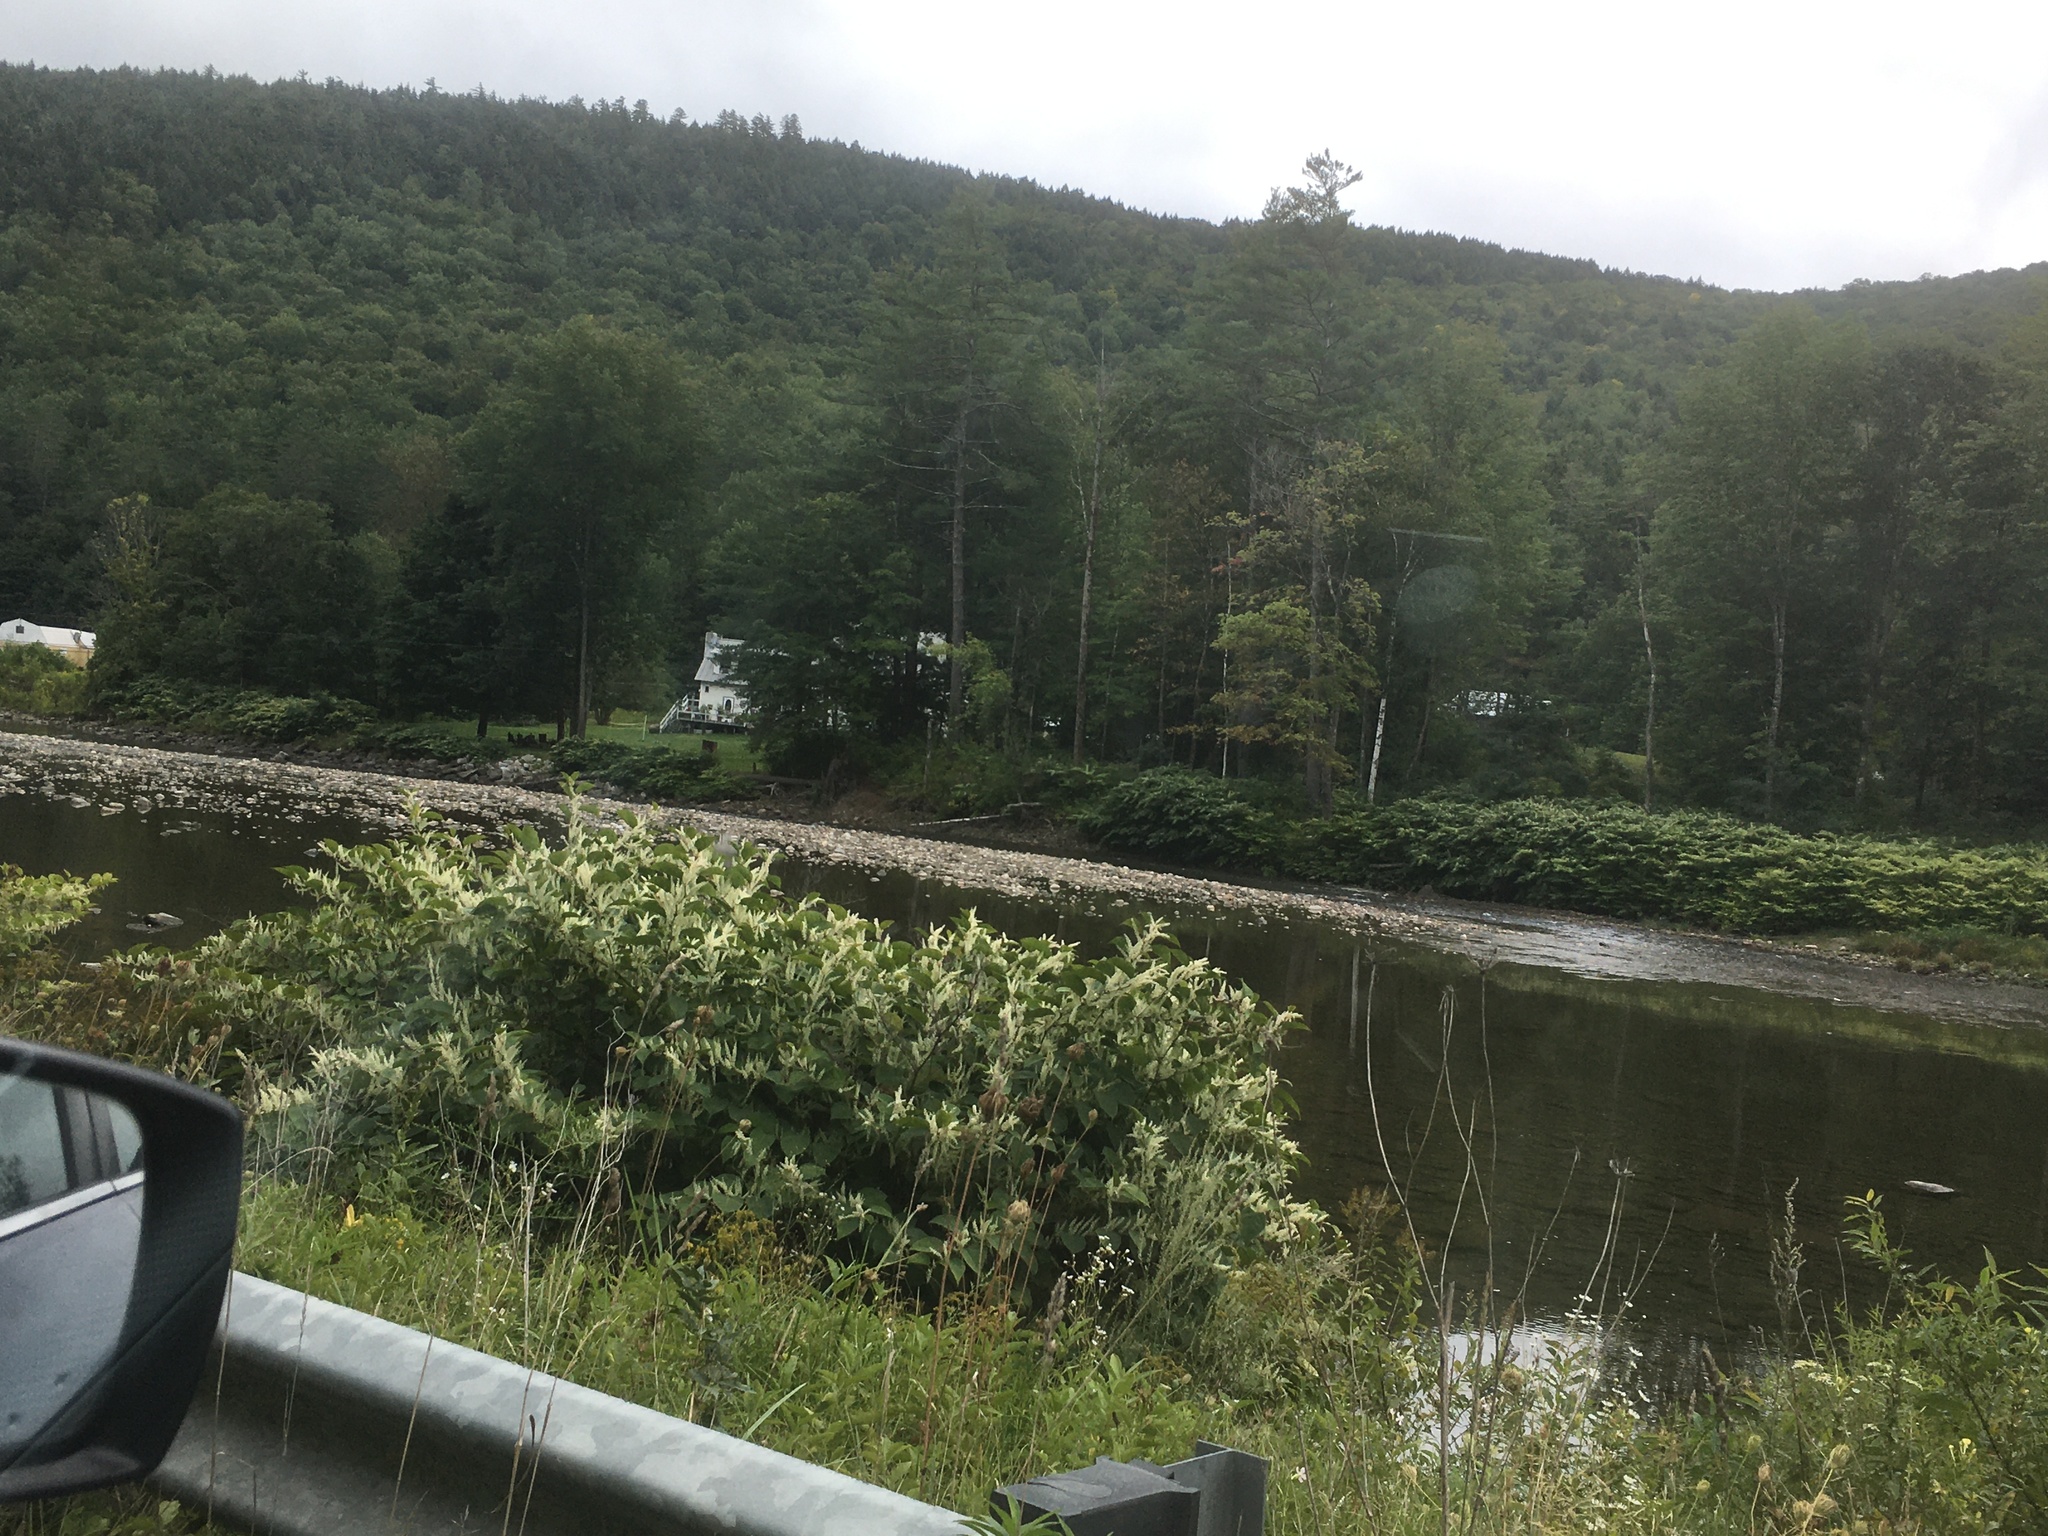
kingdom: Plantae
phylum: Tracheophyta
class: Magnoliopsida
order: Caryophyllales
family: Polygonaceae
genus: Reynoutria
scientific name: Reynoutria japonica
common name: Japanese knotweed
